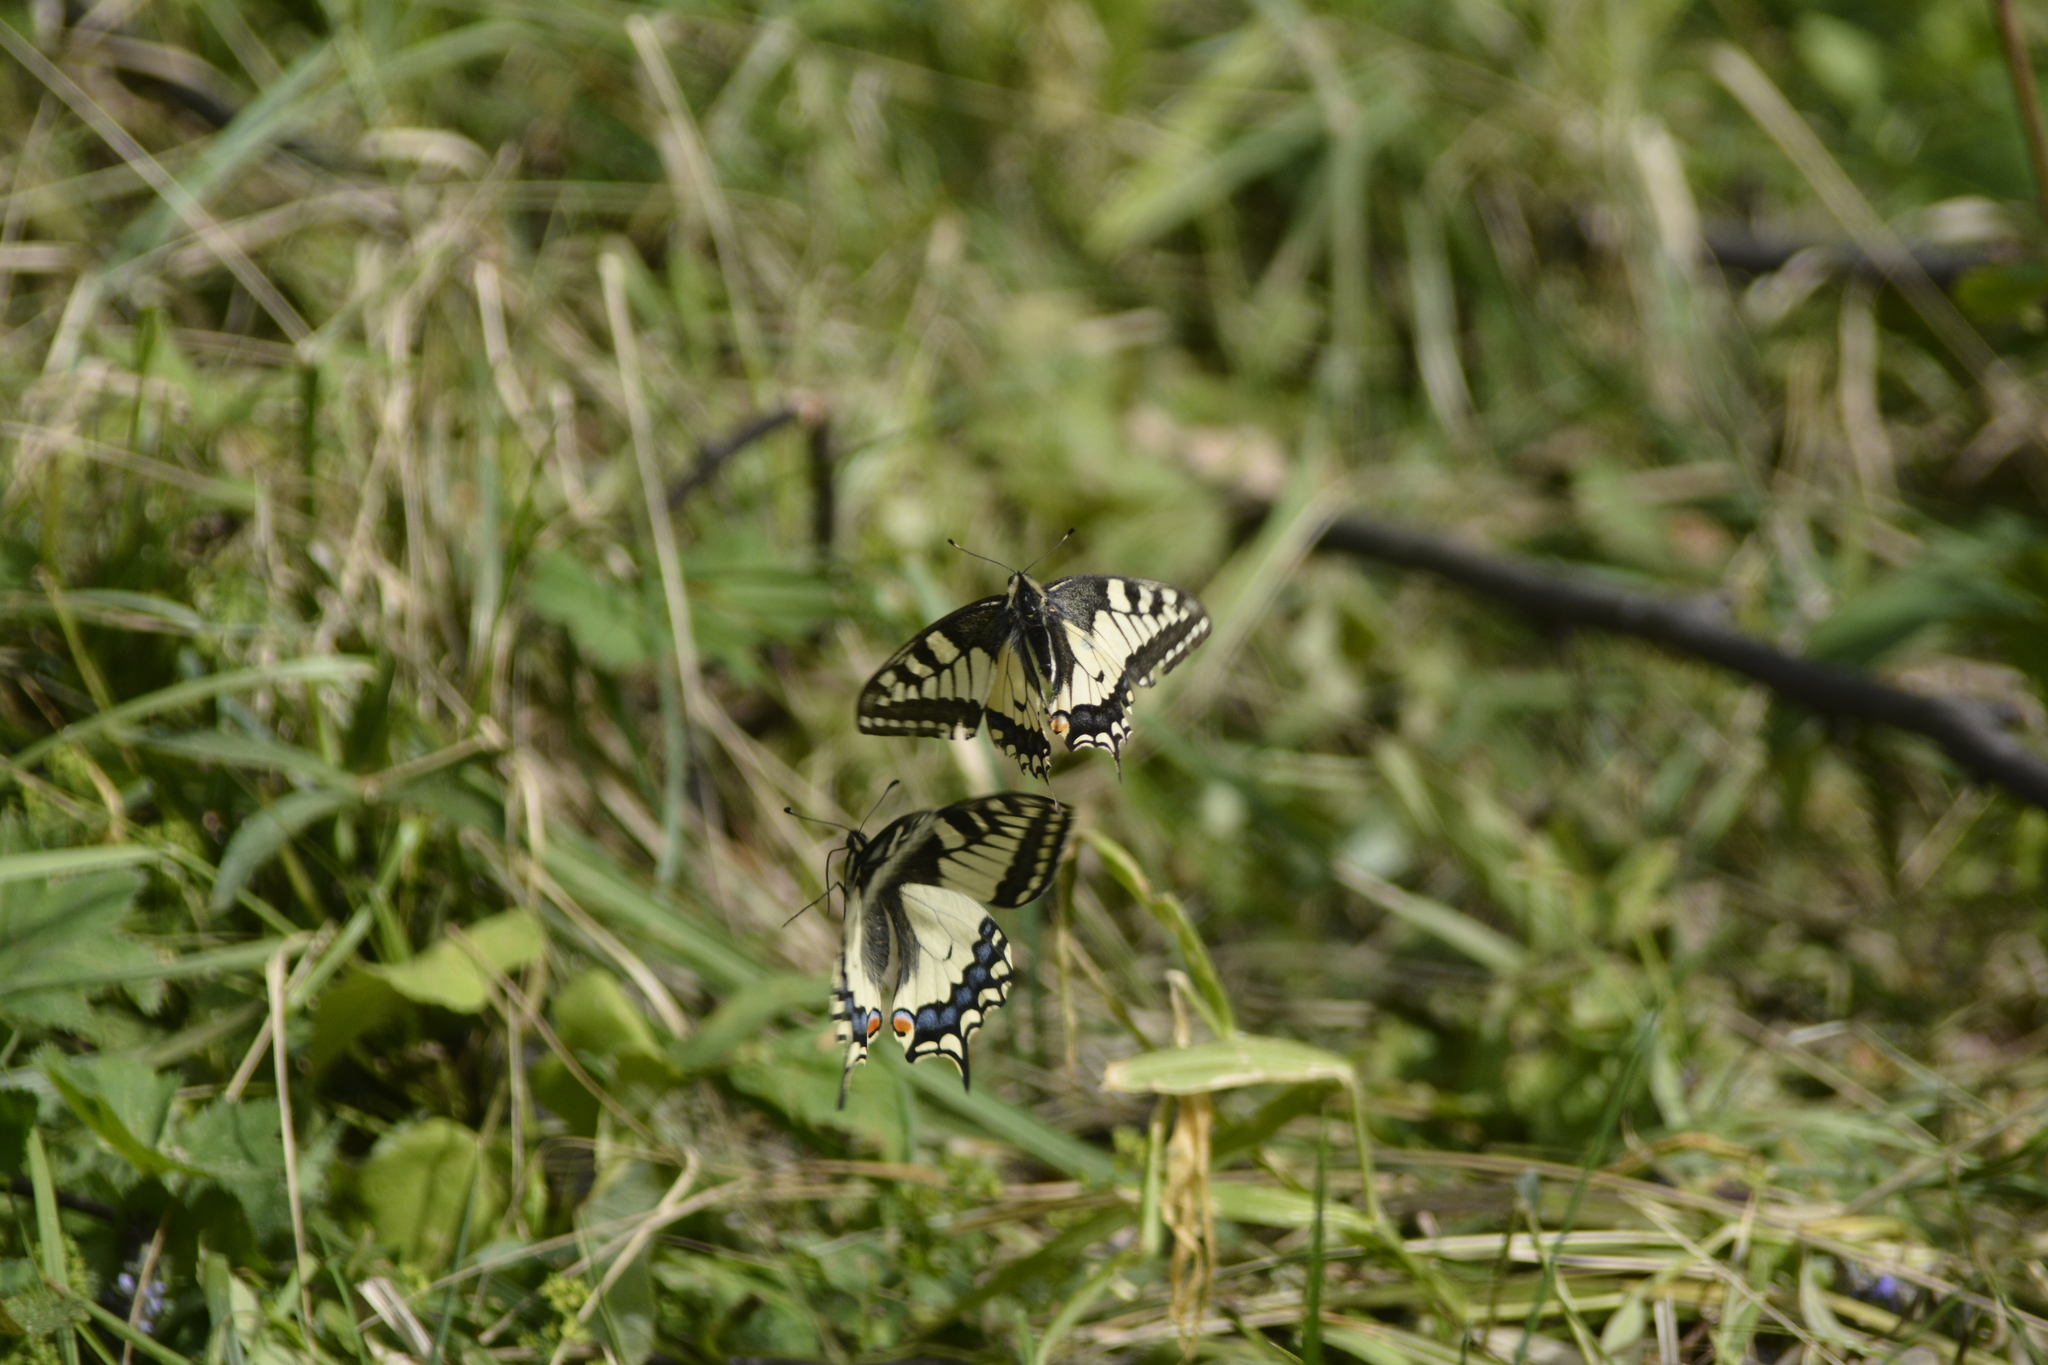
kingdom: Animalia
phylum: Arthropoda
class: Insecta
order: Lepidoptera
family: Papilionidae
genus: Papilio
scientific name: Papilio machaon
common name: Swallowtail
